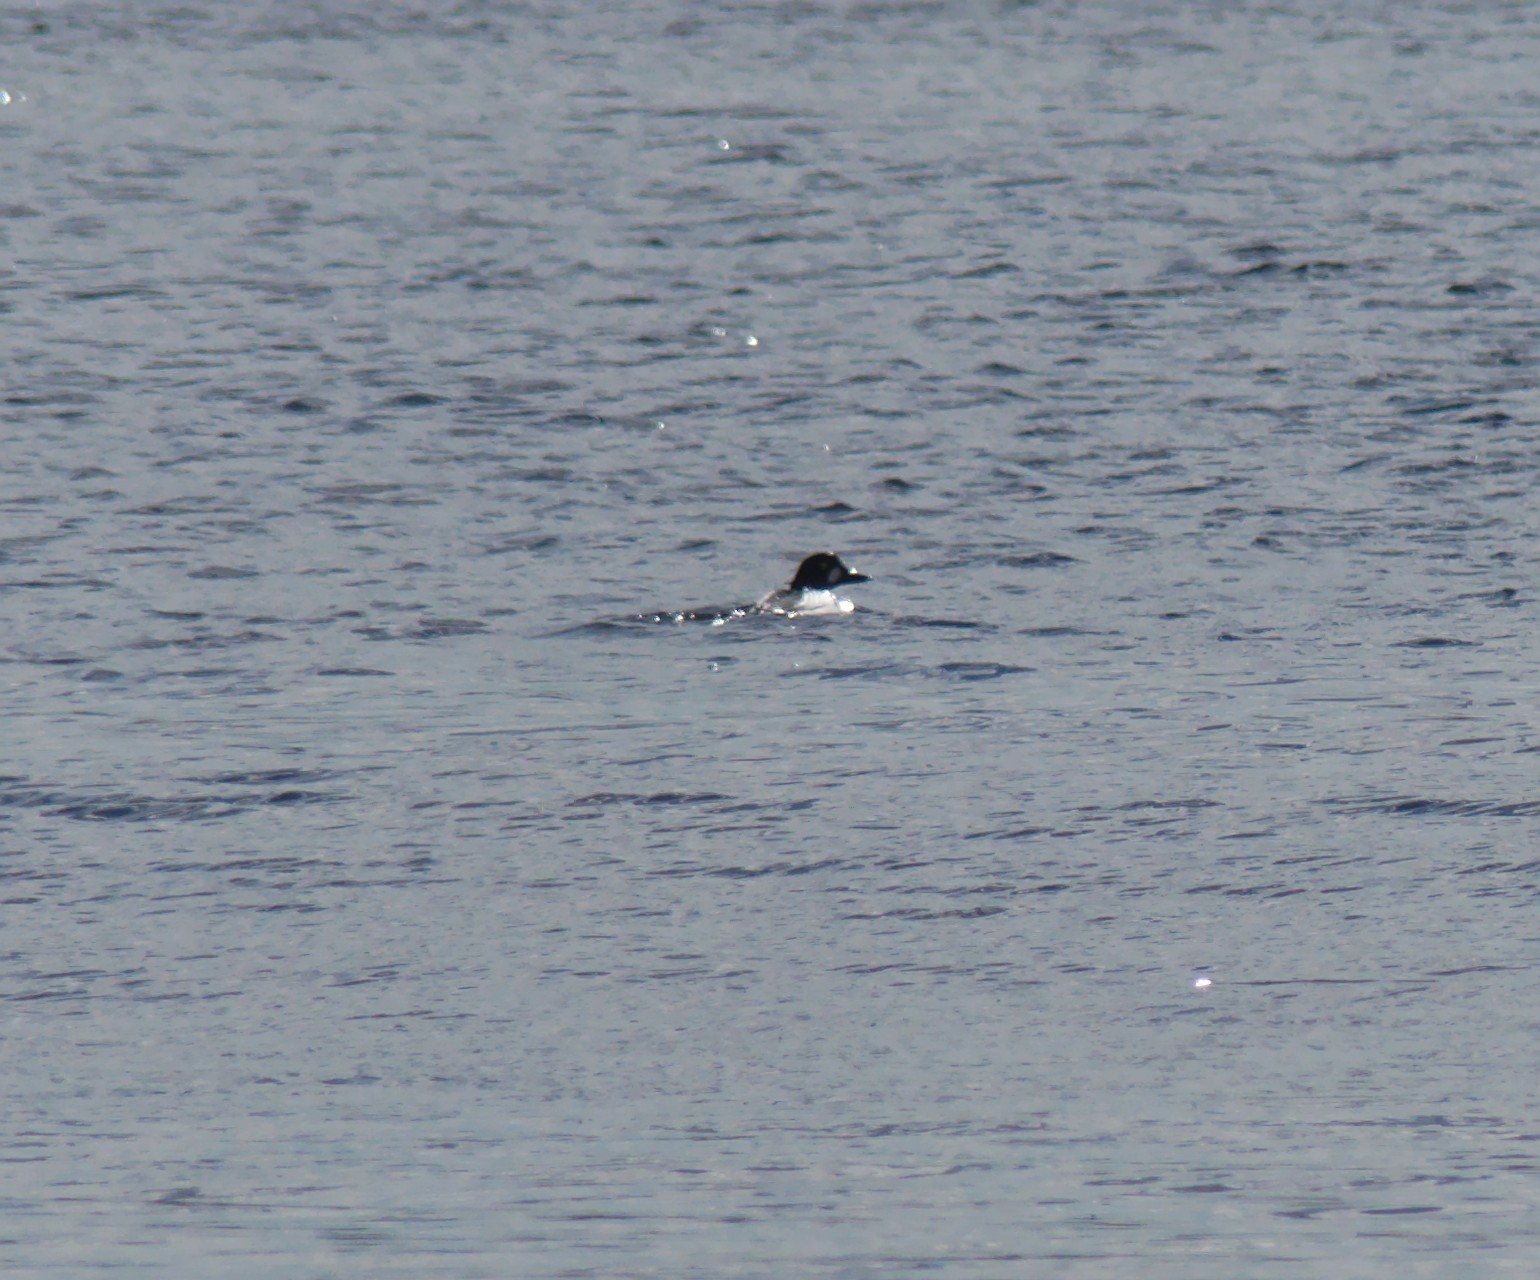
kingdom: Animalia
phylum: Chordata
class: Aves
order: Anseriformes
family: Anatidae
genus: Bucephala
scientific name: Bucephala clangula
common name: Common goldeneye
